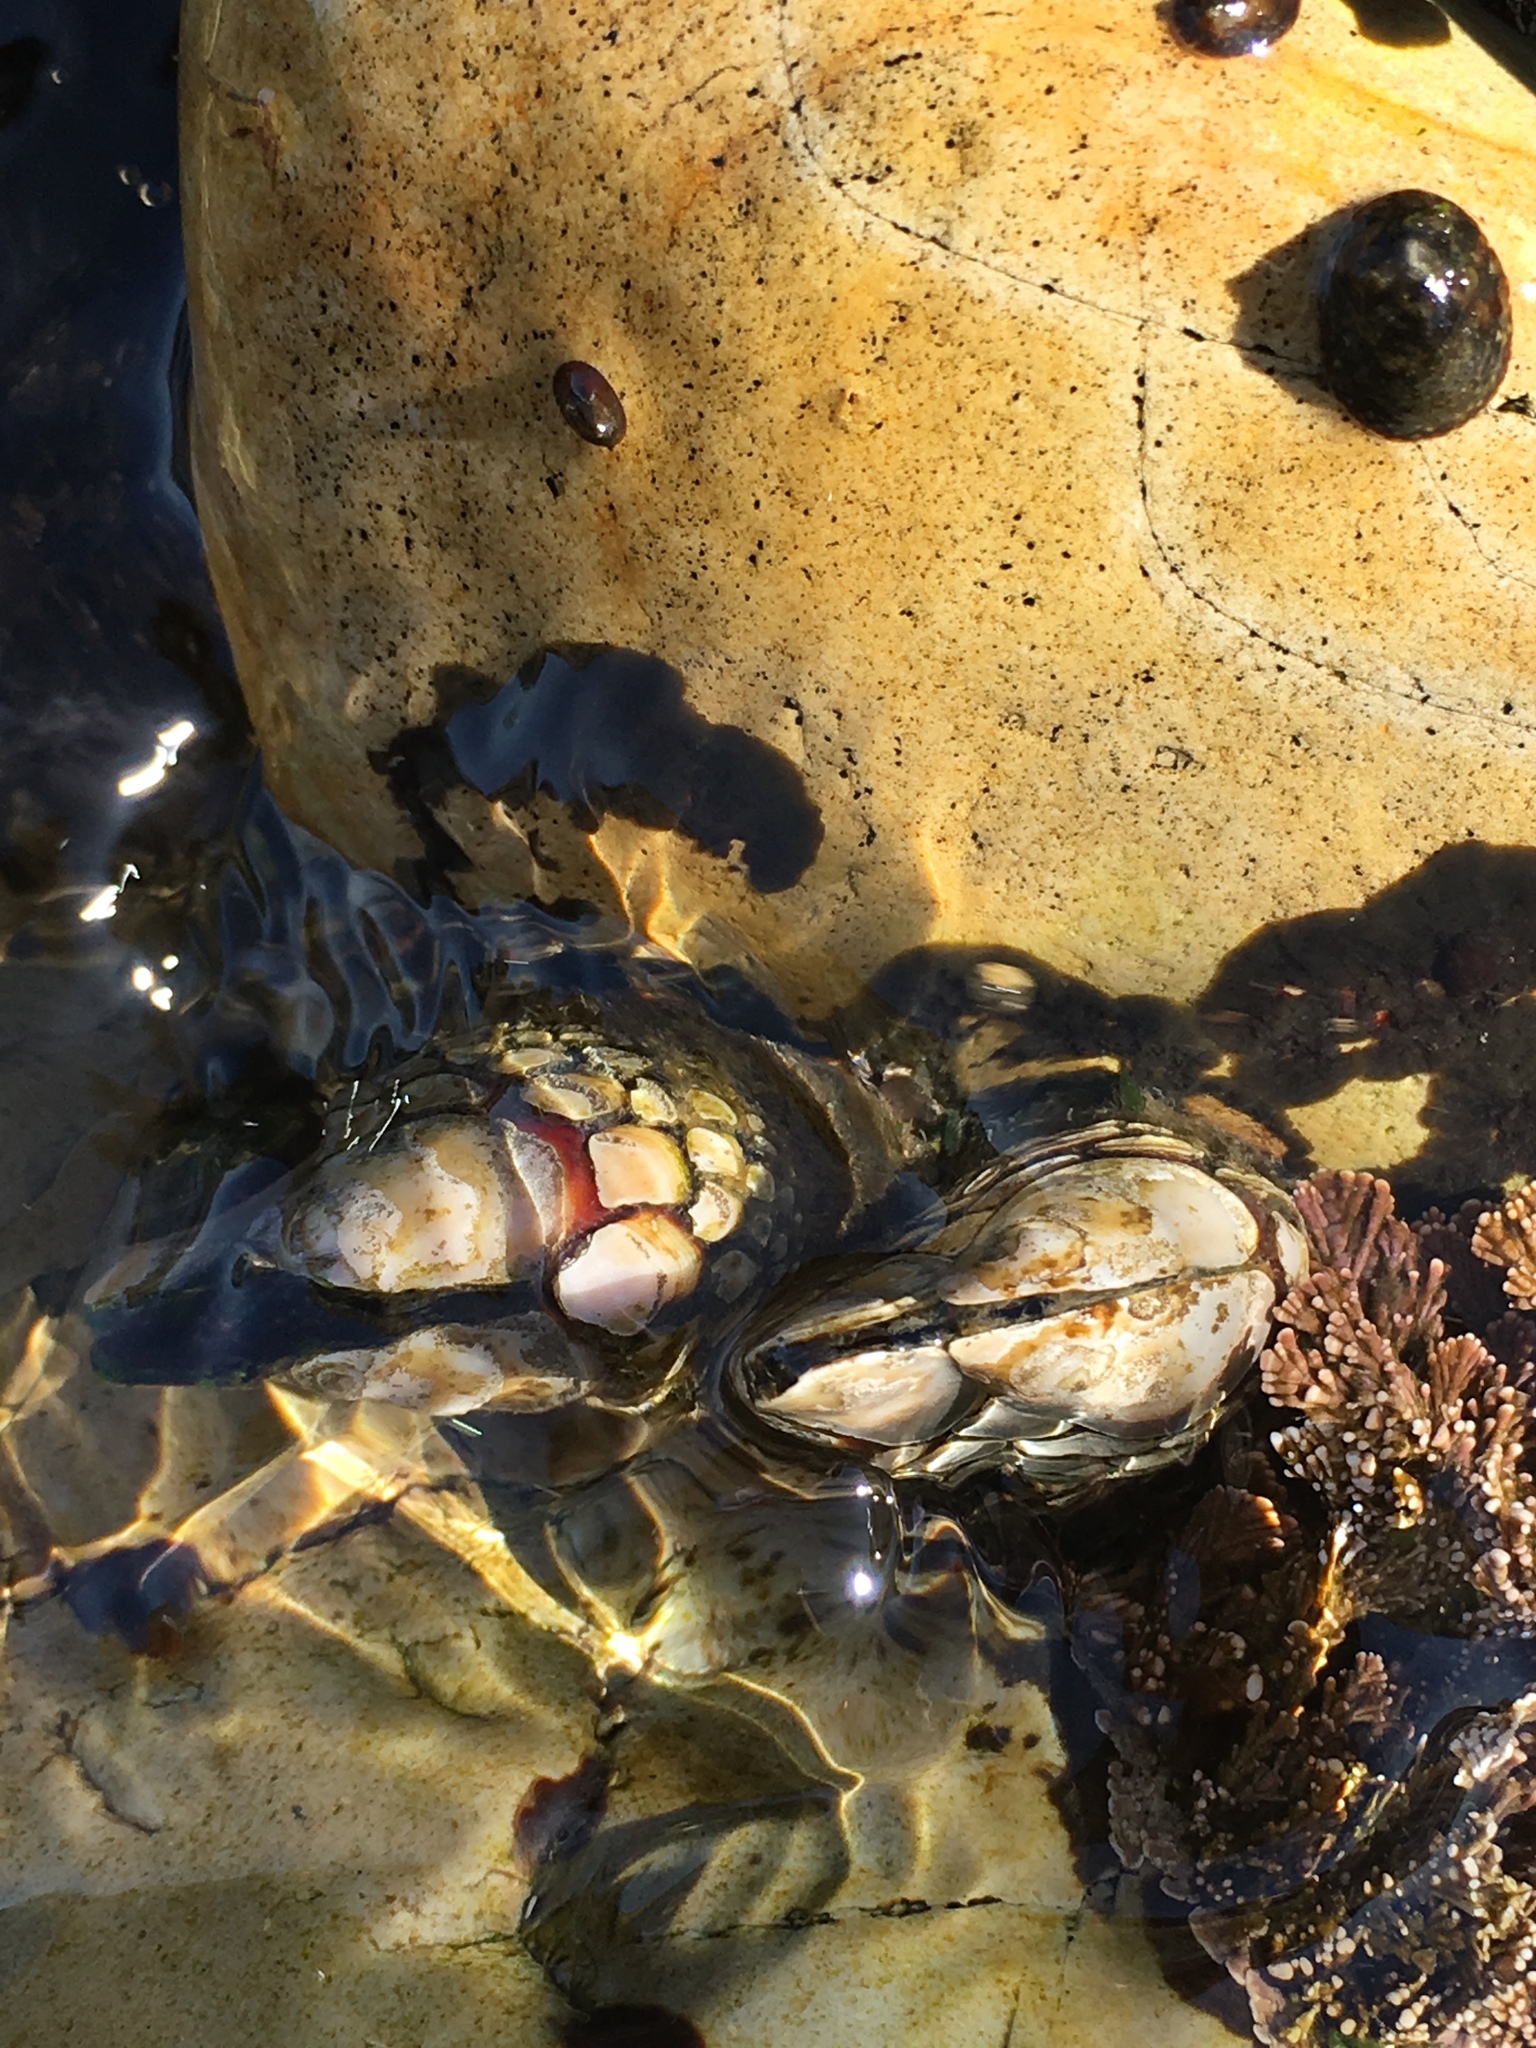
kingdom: Animalia
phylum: Arthropoda
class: Maxillopoda
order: Pedunculata
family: Pollicipedidae
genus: Pollicipes
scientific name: Pollicipes polymerus
